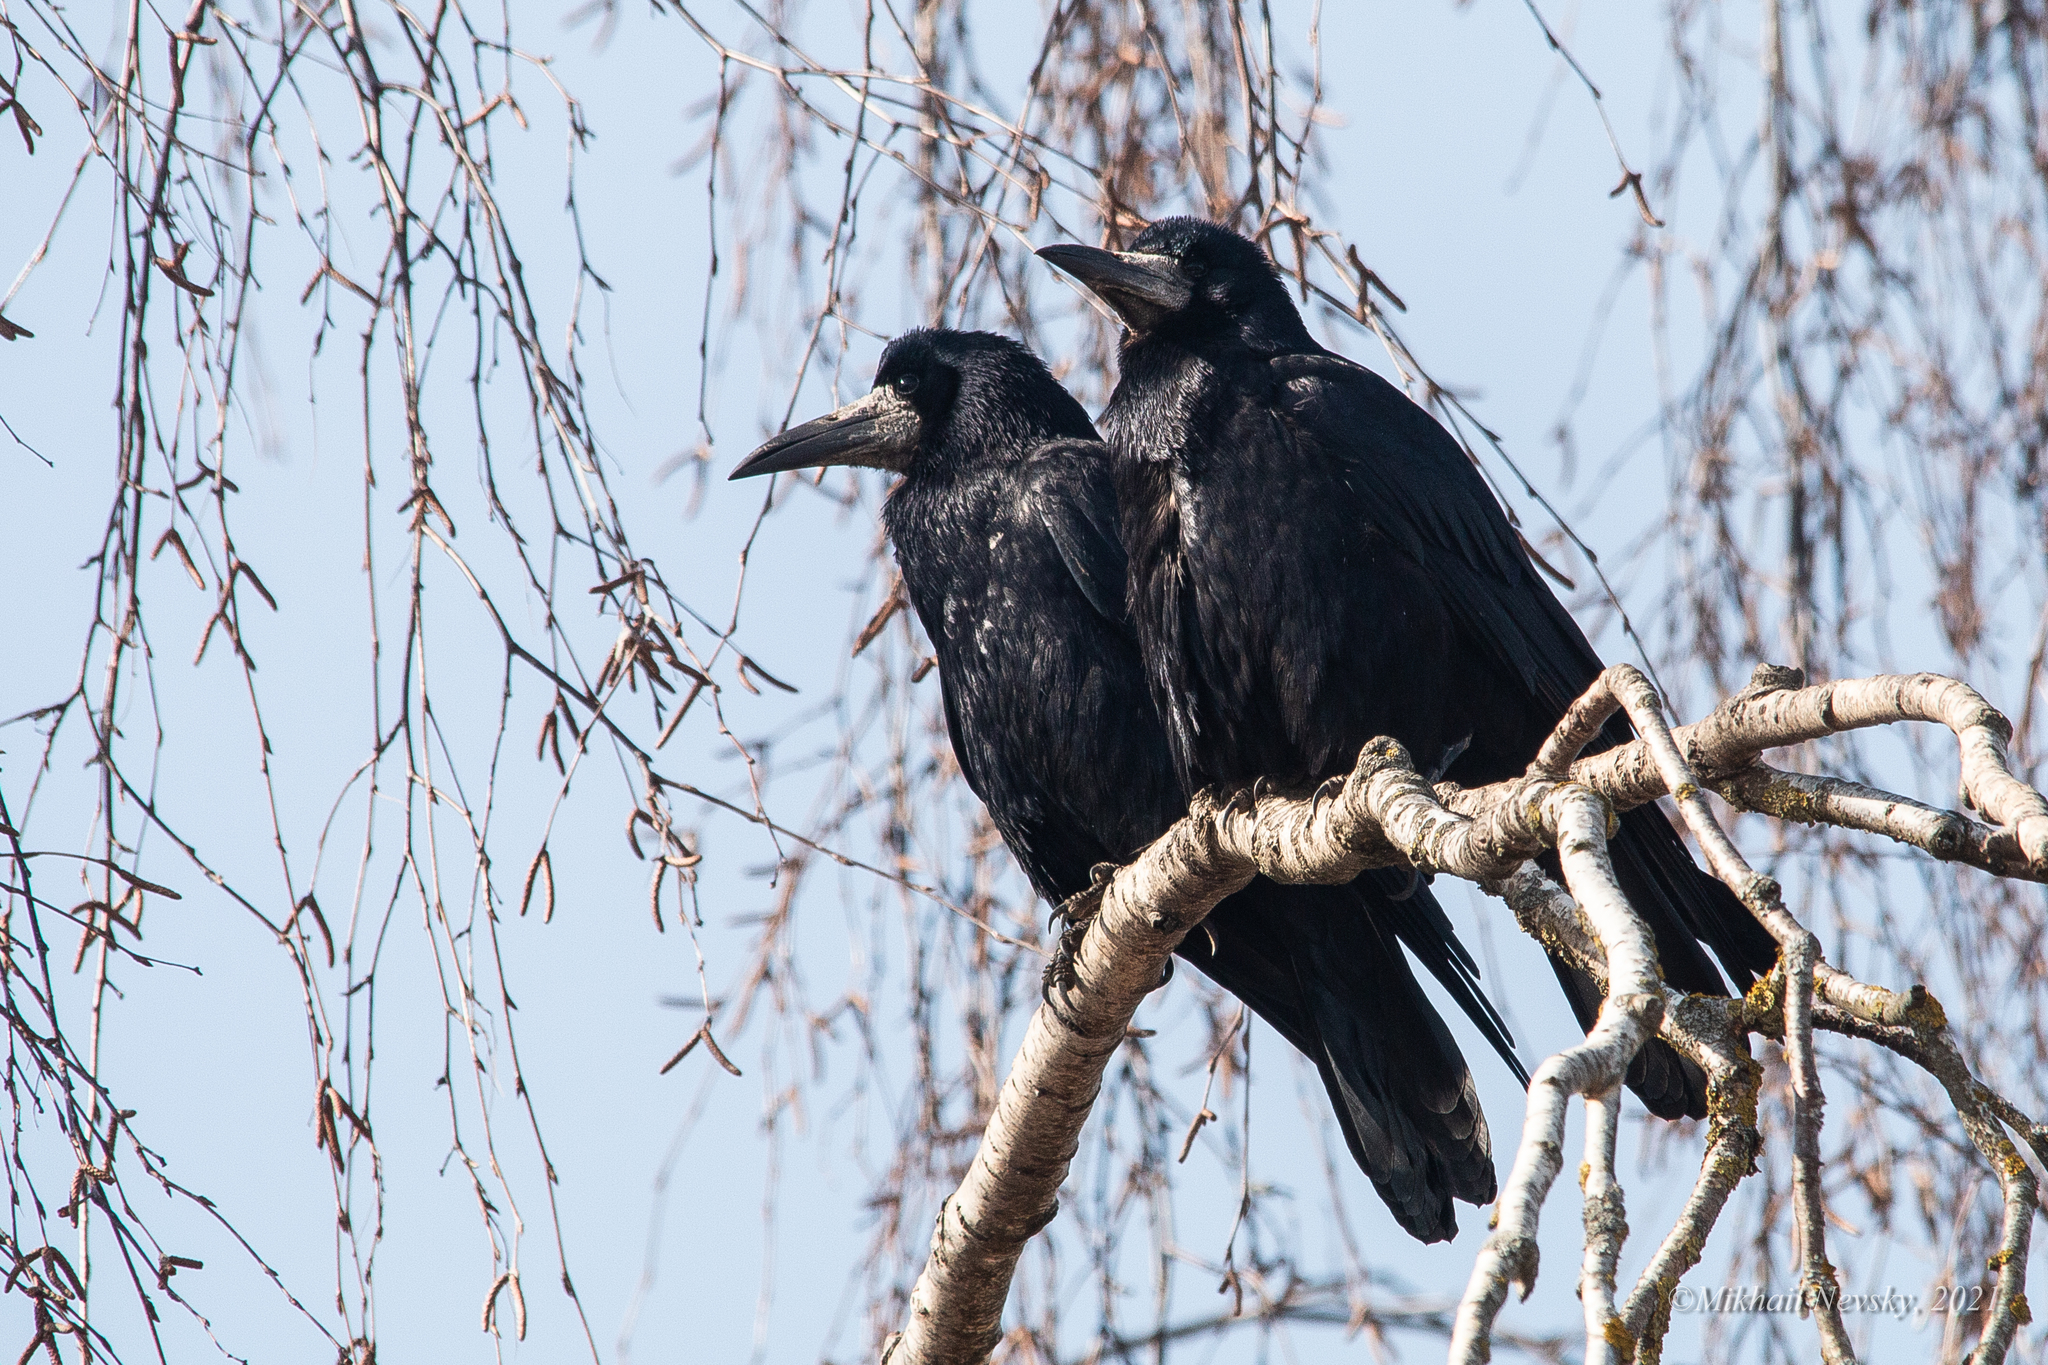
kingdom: Animalia
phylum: Chordata
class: Aves
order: Passeriformes
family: Corvidae
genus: Corvus
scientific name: Corvus frugilegus
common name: Rook
